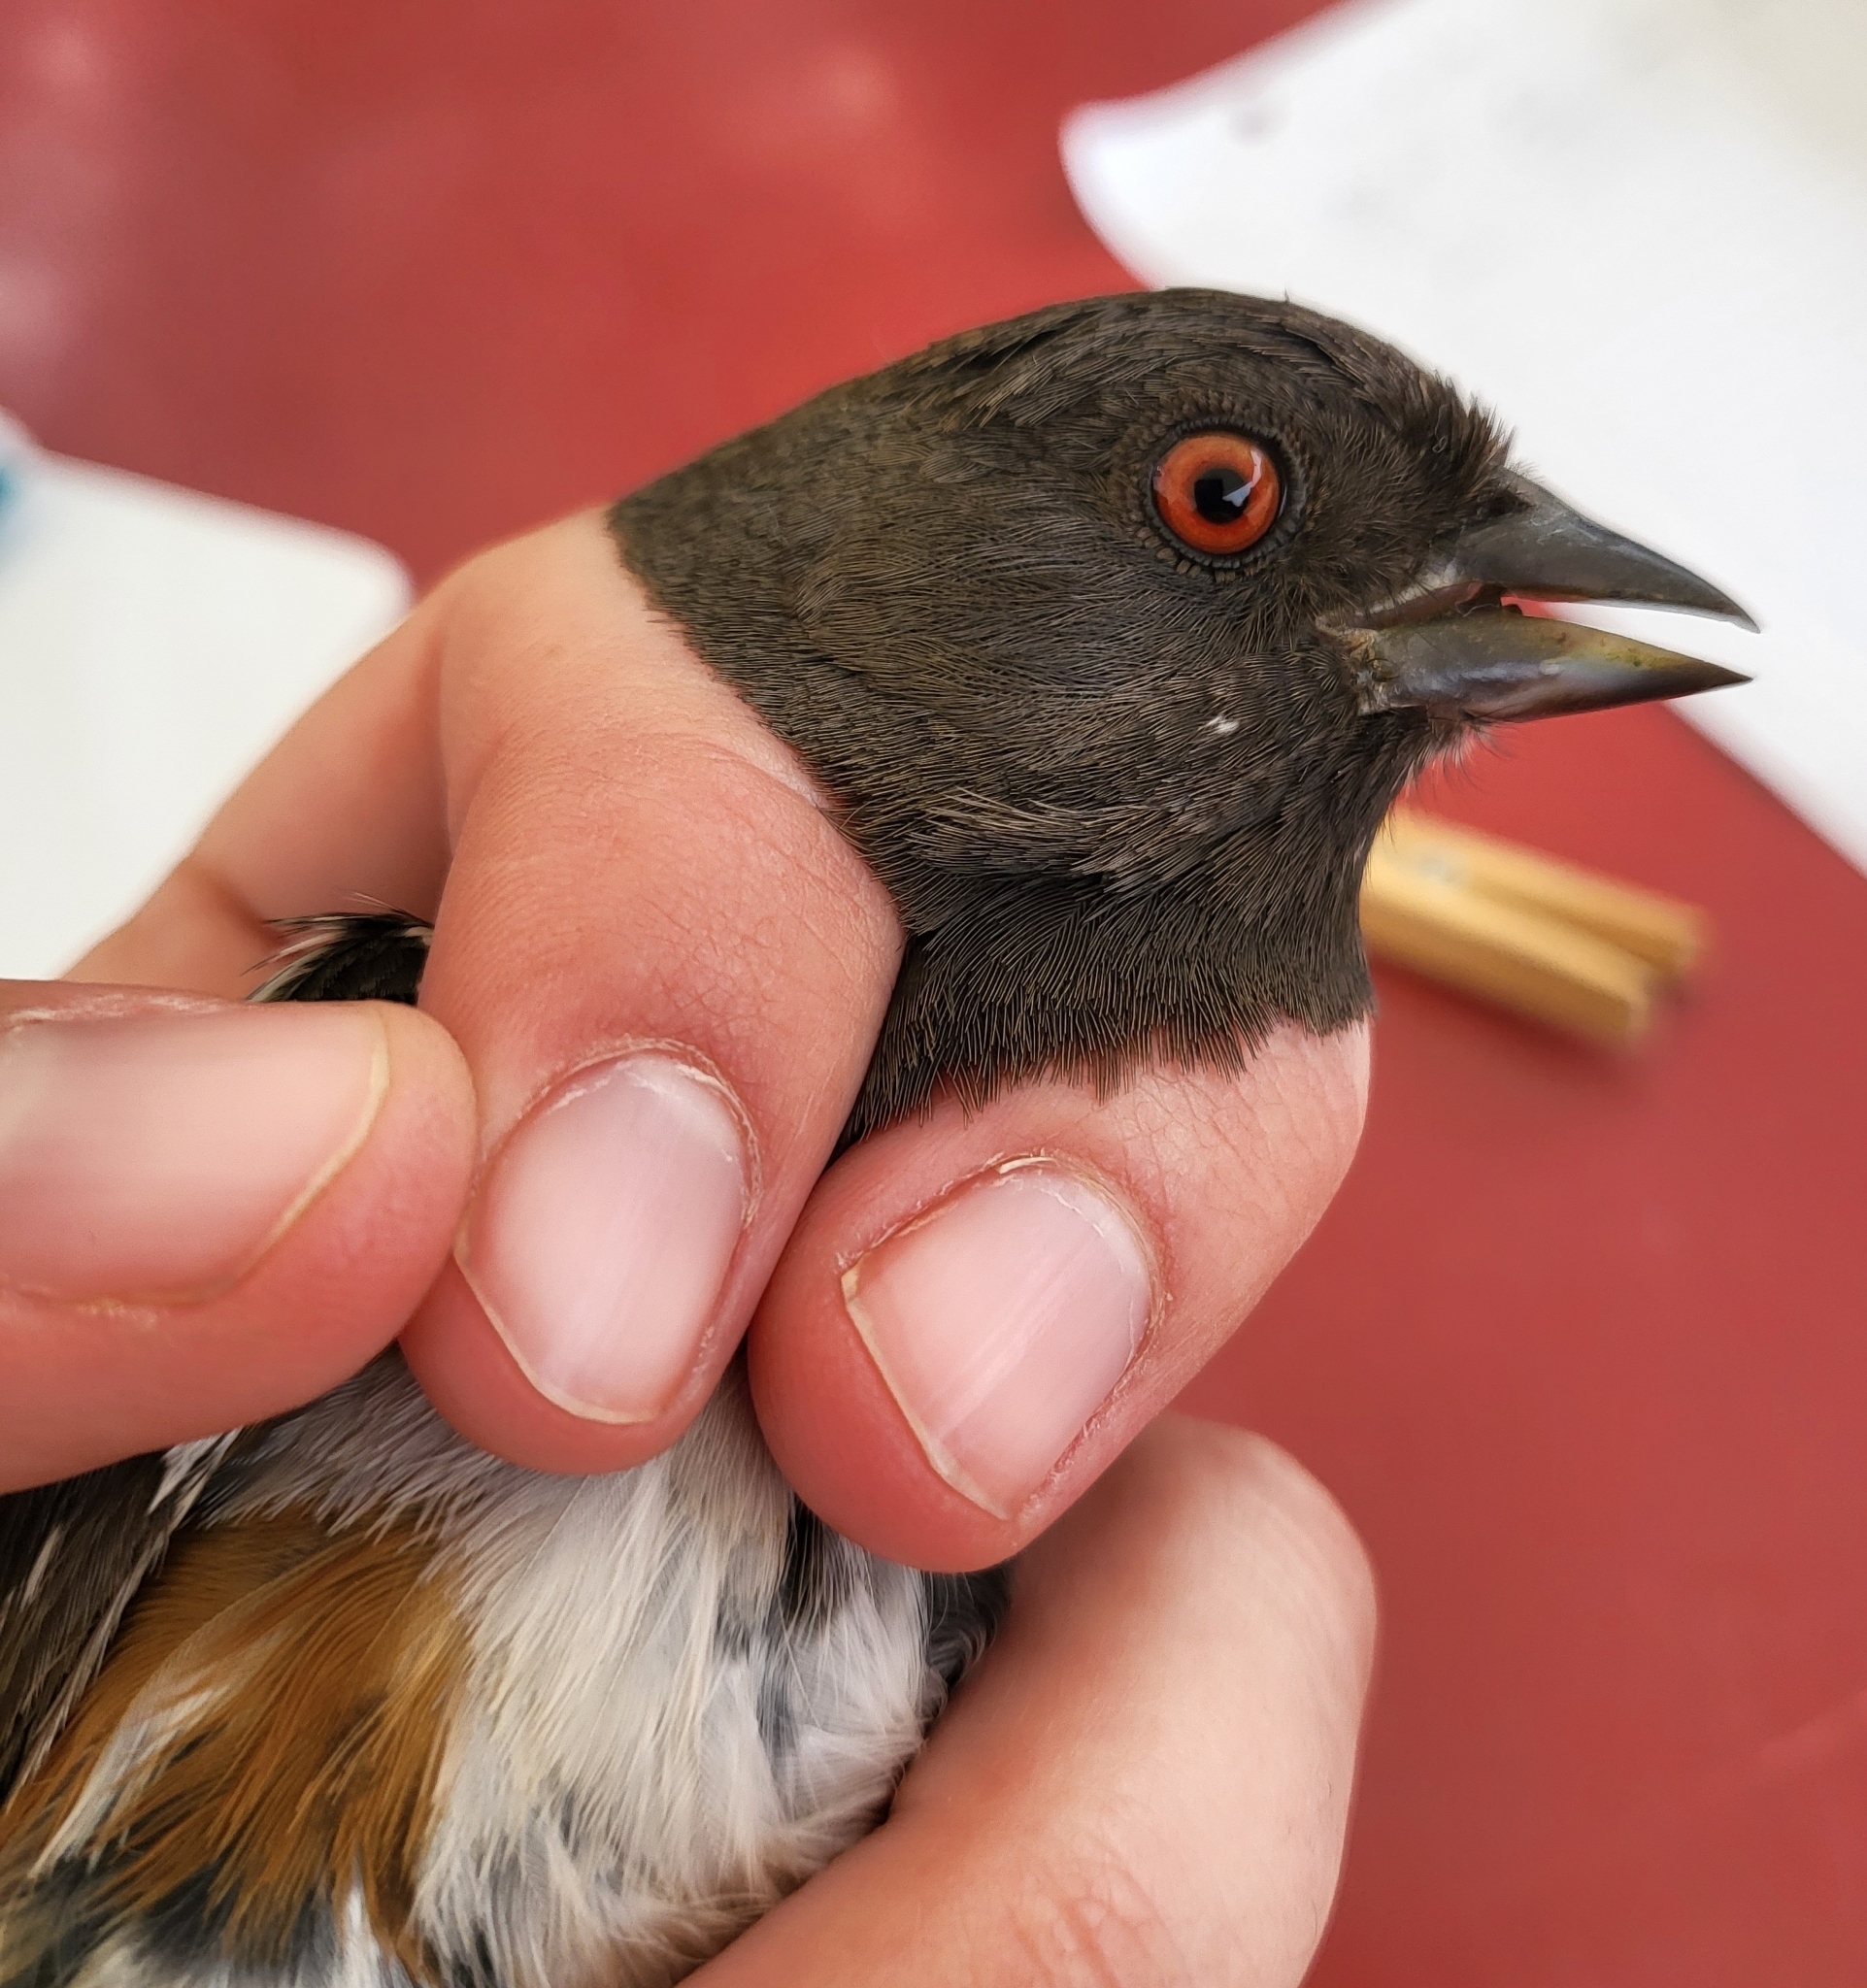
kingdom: Animalia
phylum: Chordata
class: Aves
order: Passeriformes
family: Passerellidae
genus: Pipilo
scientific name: Pipilo maculatus
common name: Spotted towhee
